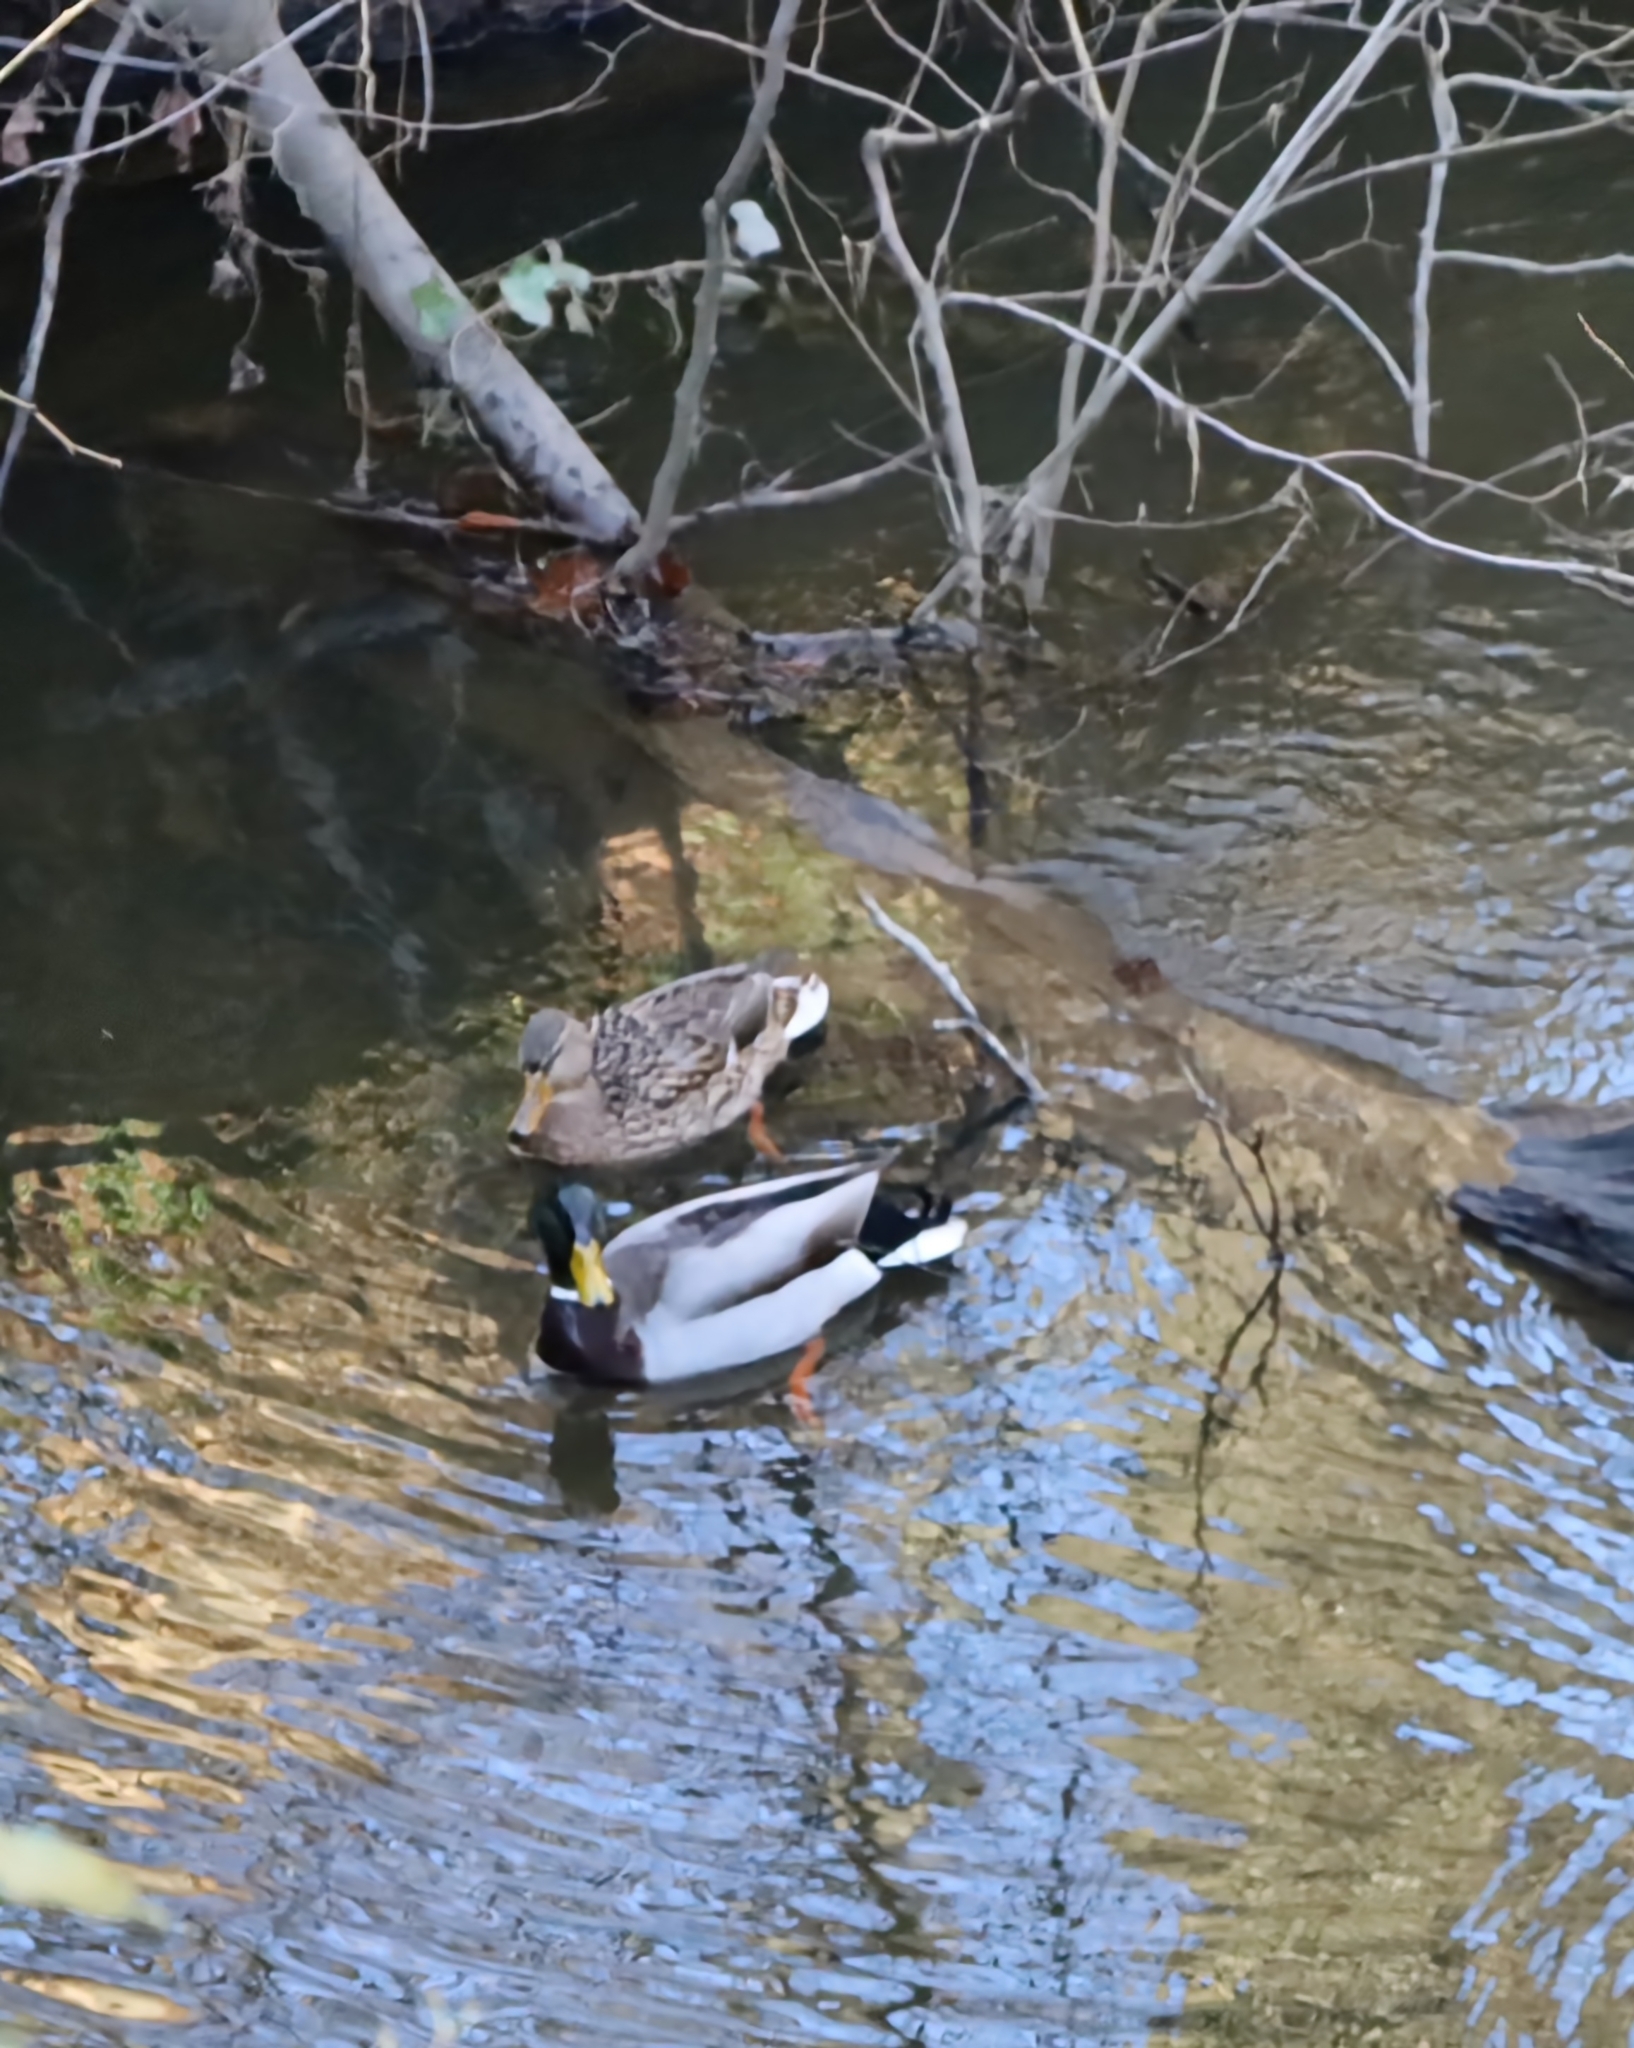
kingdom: Animalia
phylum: Chordata
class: Aves
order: Anseriformes
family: Anatidae
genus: Anas
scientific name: Anas platyrhynchos
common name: Mallard
